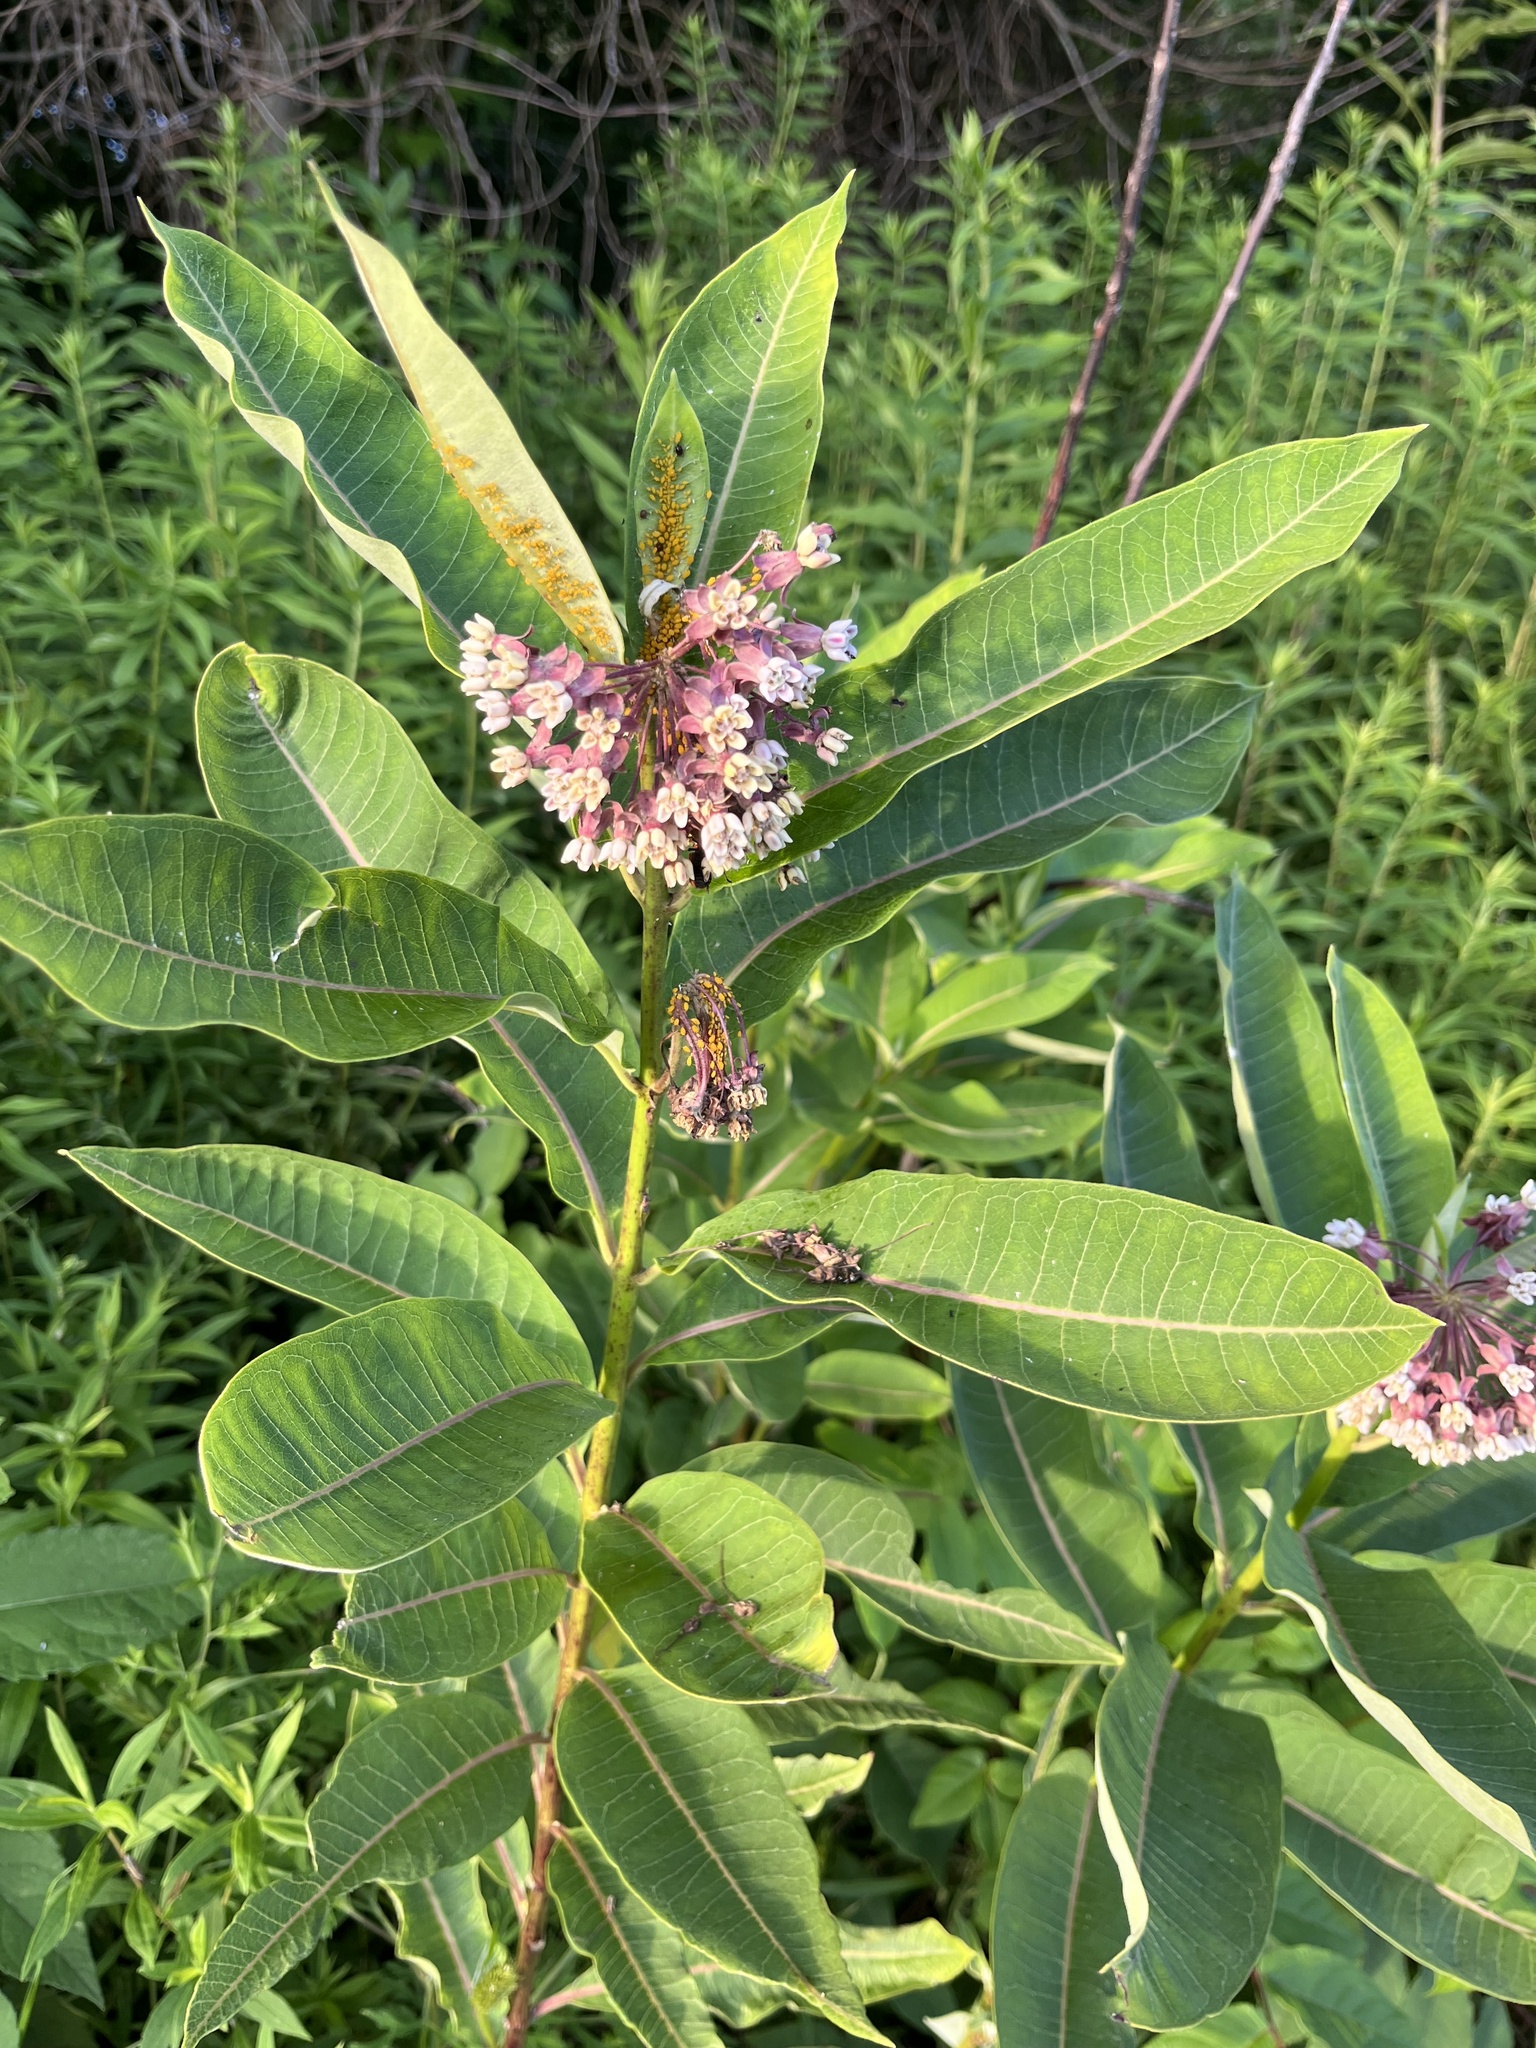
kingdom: Plantae
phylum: Tracheophyta
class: Magnoliopsida
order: Gentianales
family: Apocynaceae
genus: Asclepias
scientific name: Asclepias syriaca
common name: Common milkweed
